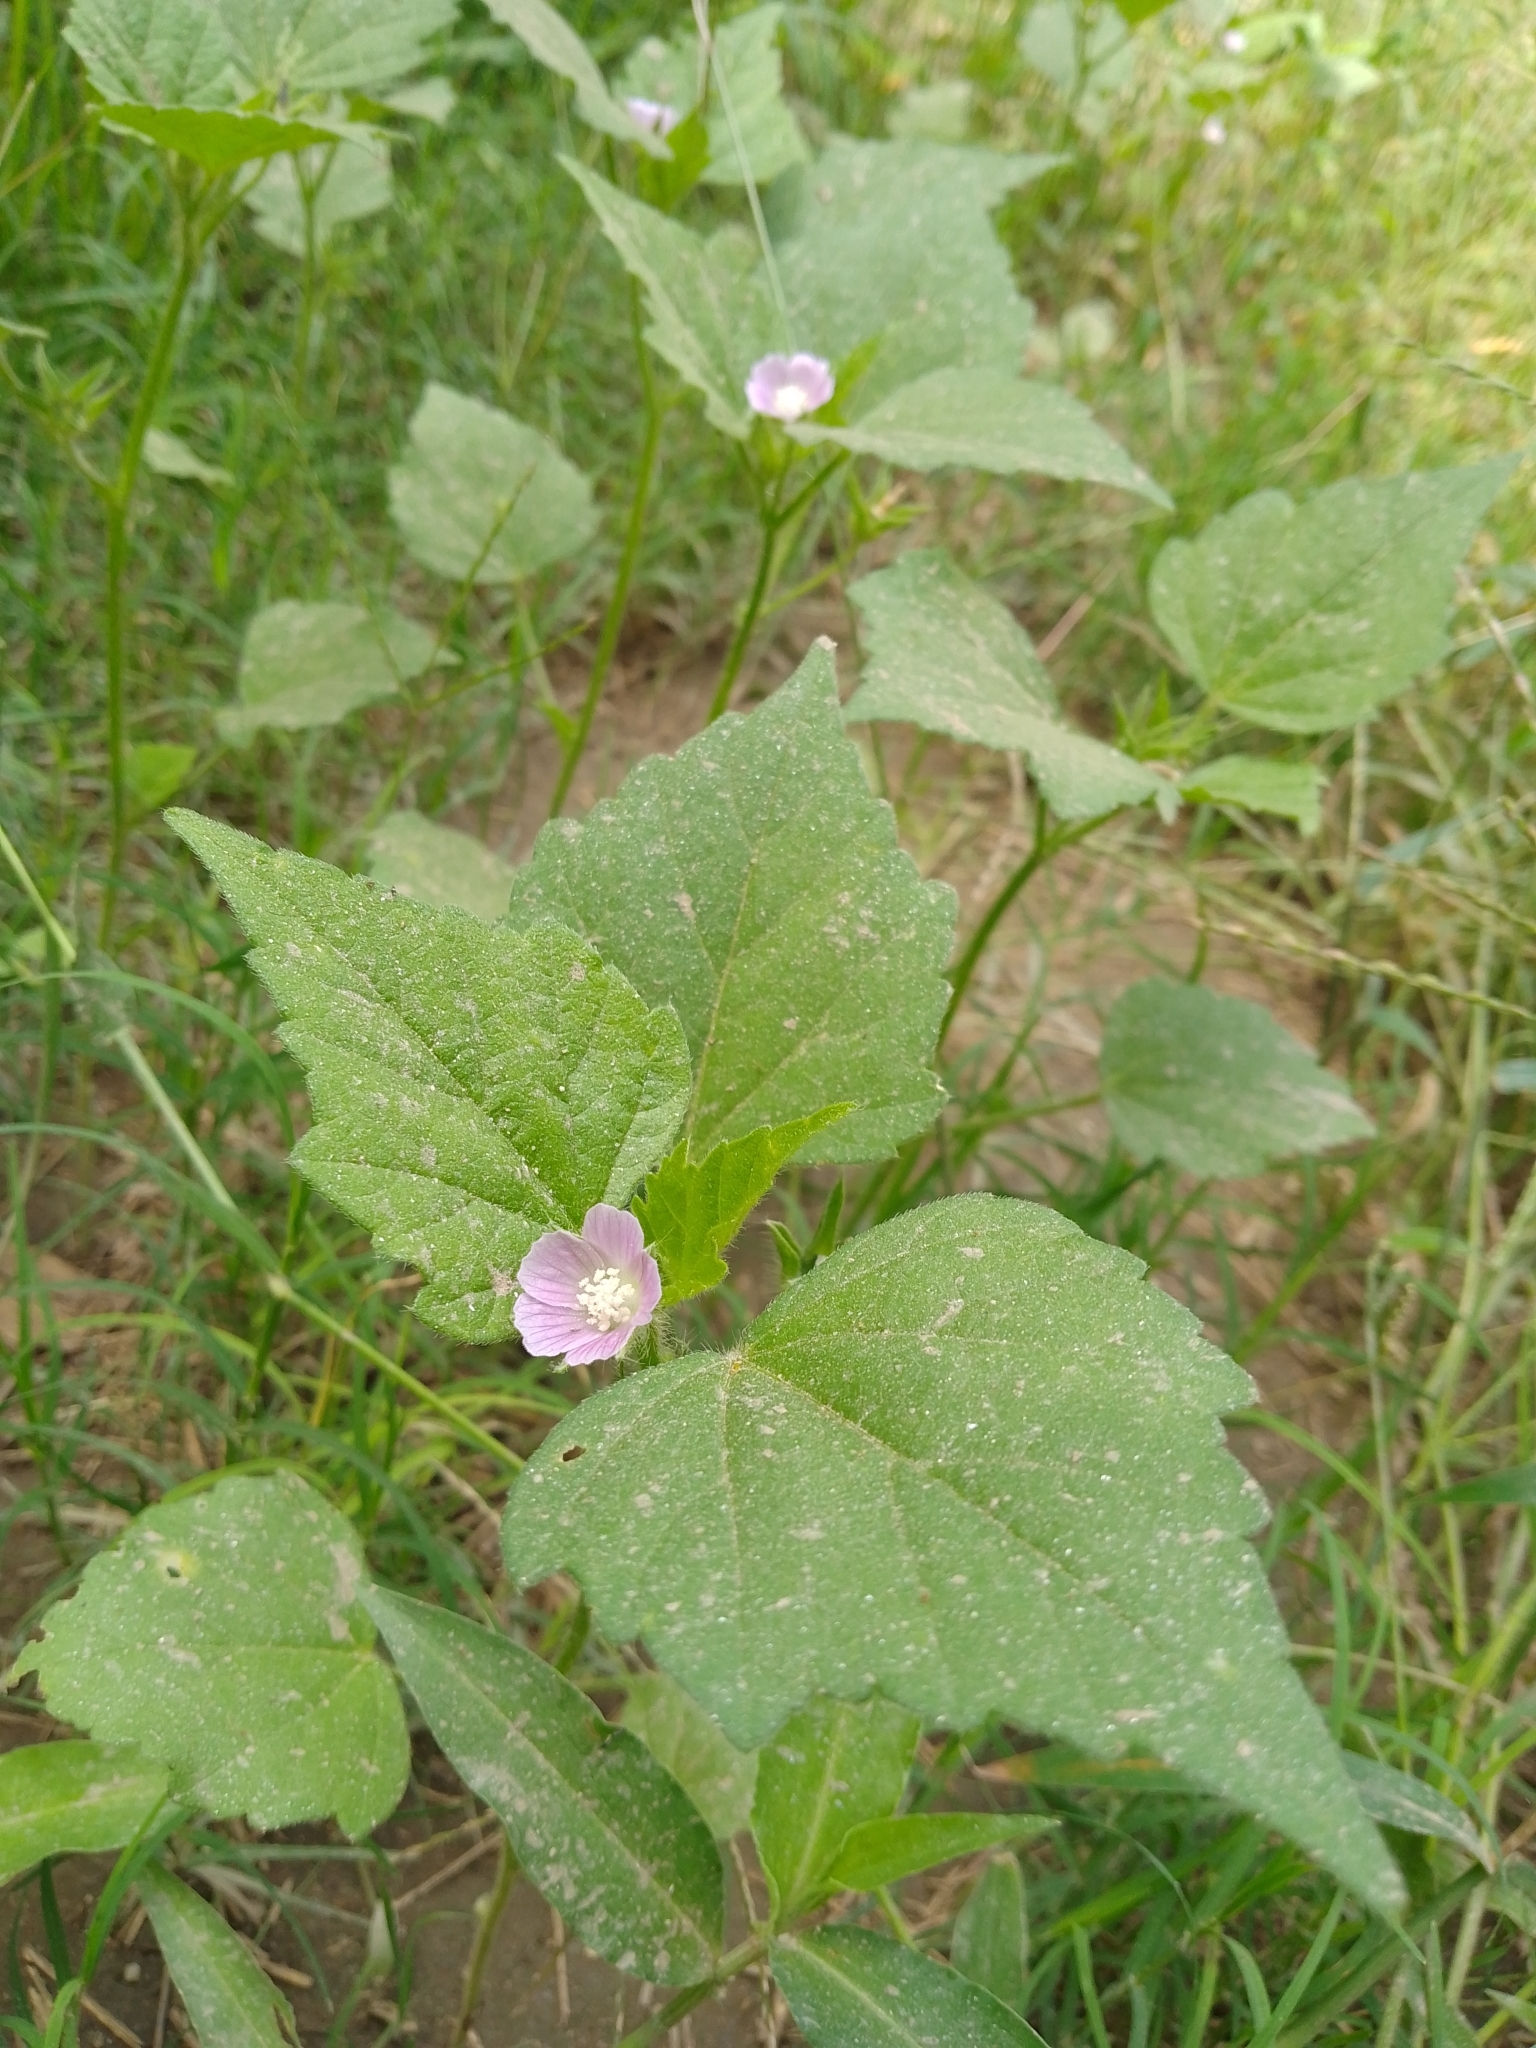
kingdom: Plantae
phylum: Tracheophyta
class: Magnoliopsida
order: Malvales
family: Malvaceae
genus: Anoda
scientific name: Anoda cristata
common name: Spurred anoda
